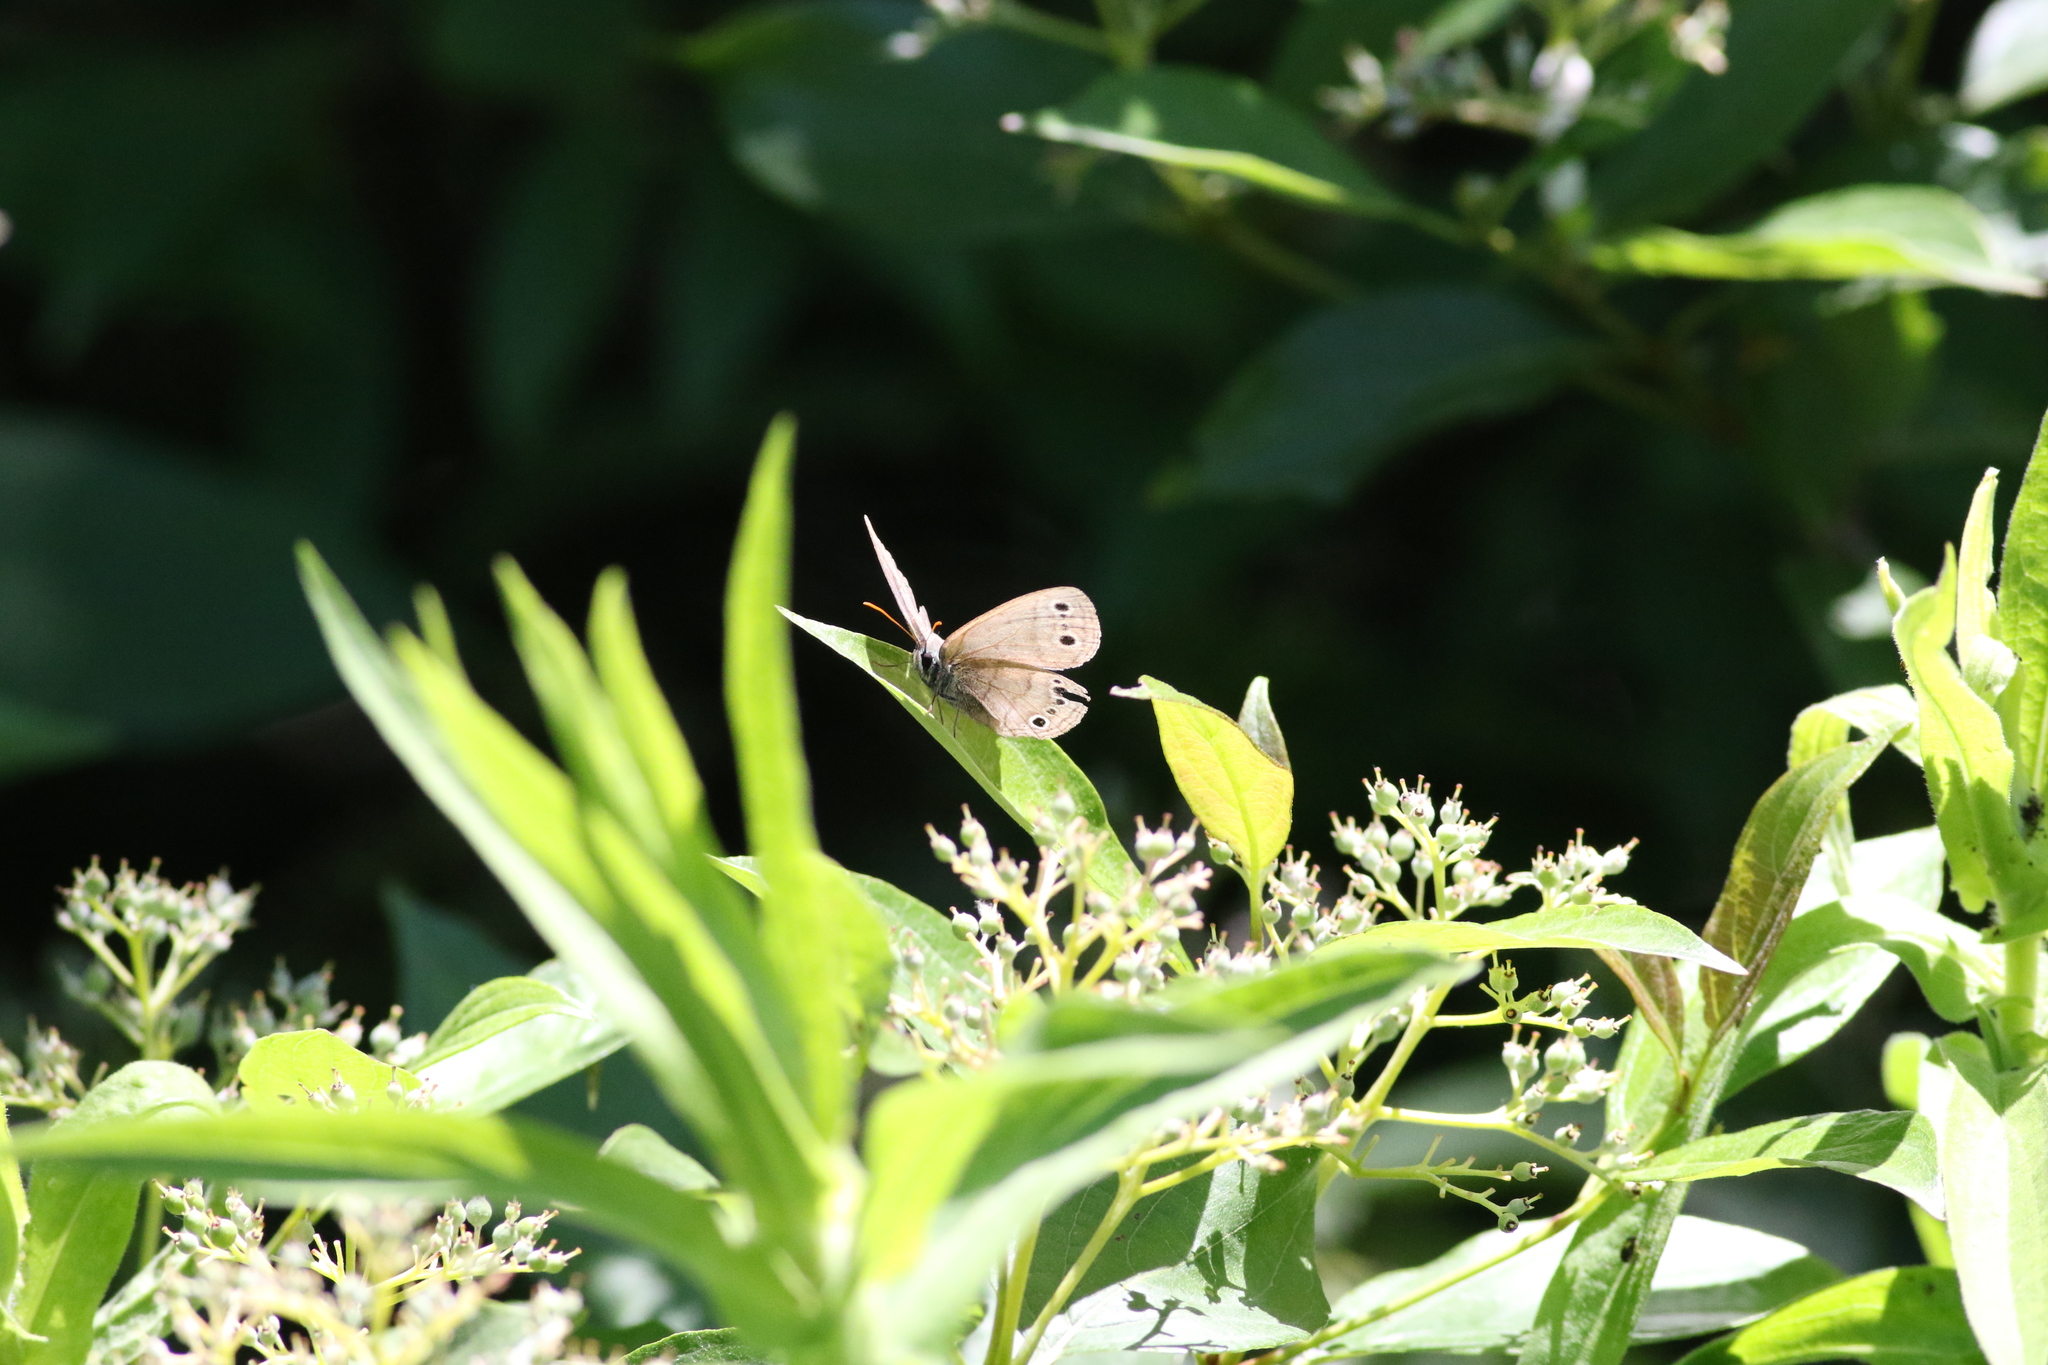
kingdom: Animalia
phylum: Arthropoda
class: Insecta
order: Lepidoptera
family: Nymphalidae
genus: Euptychia
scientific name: Euptychia cymela
